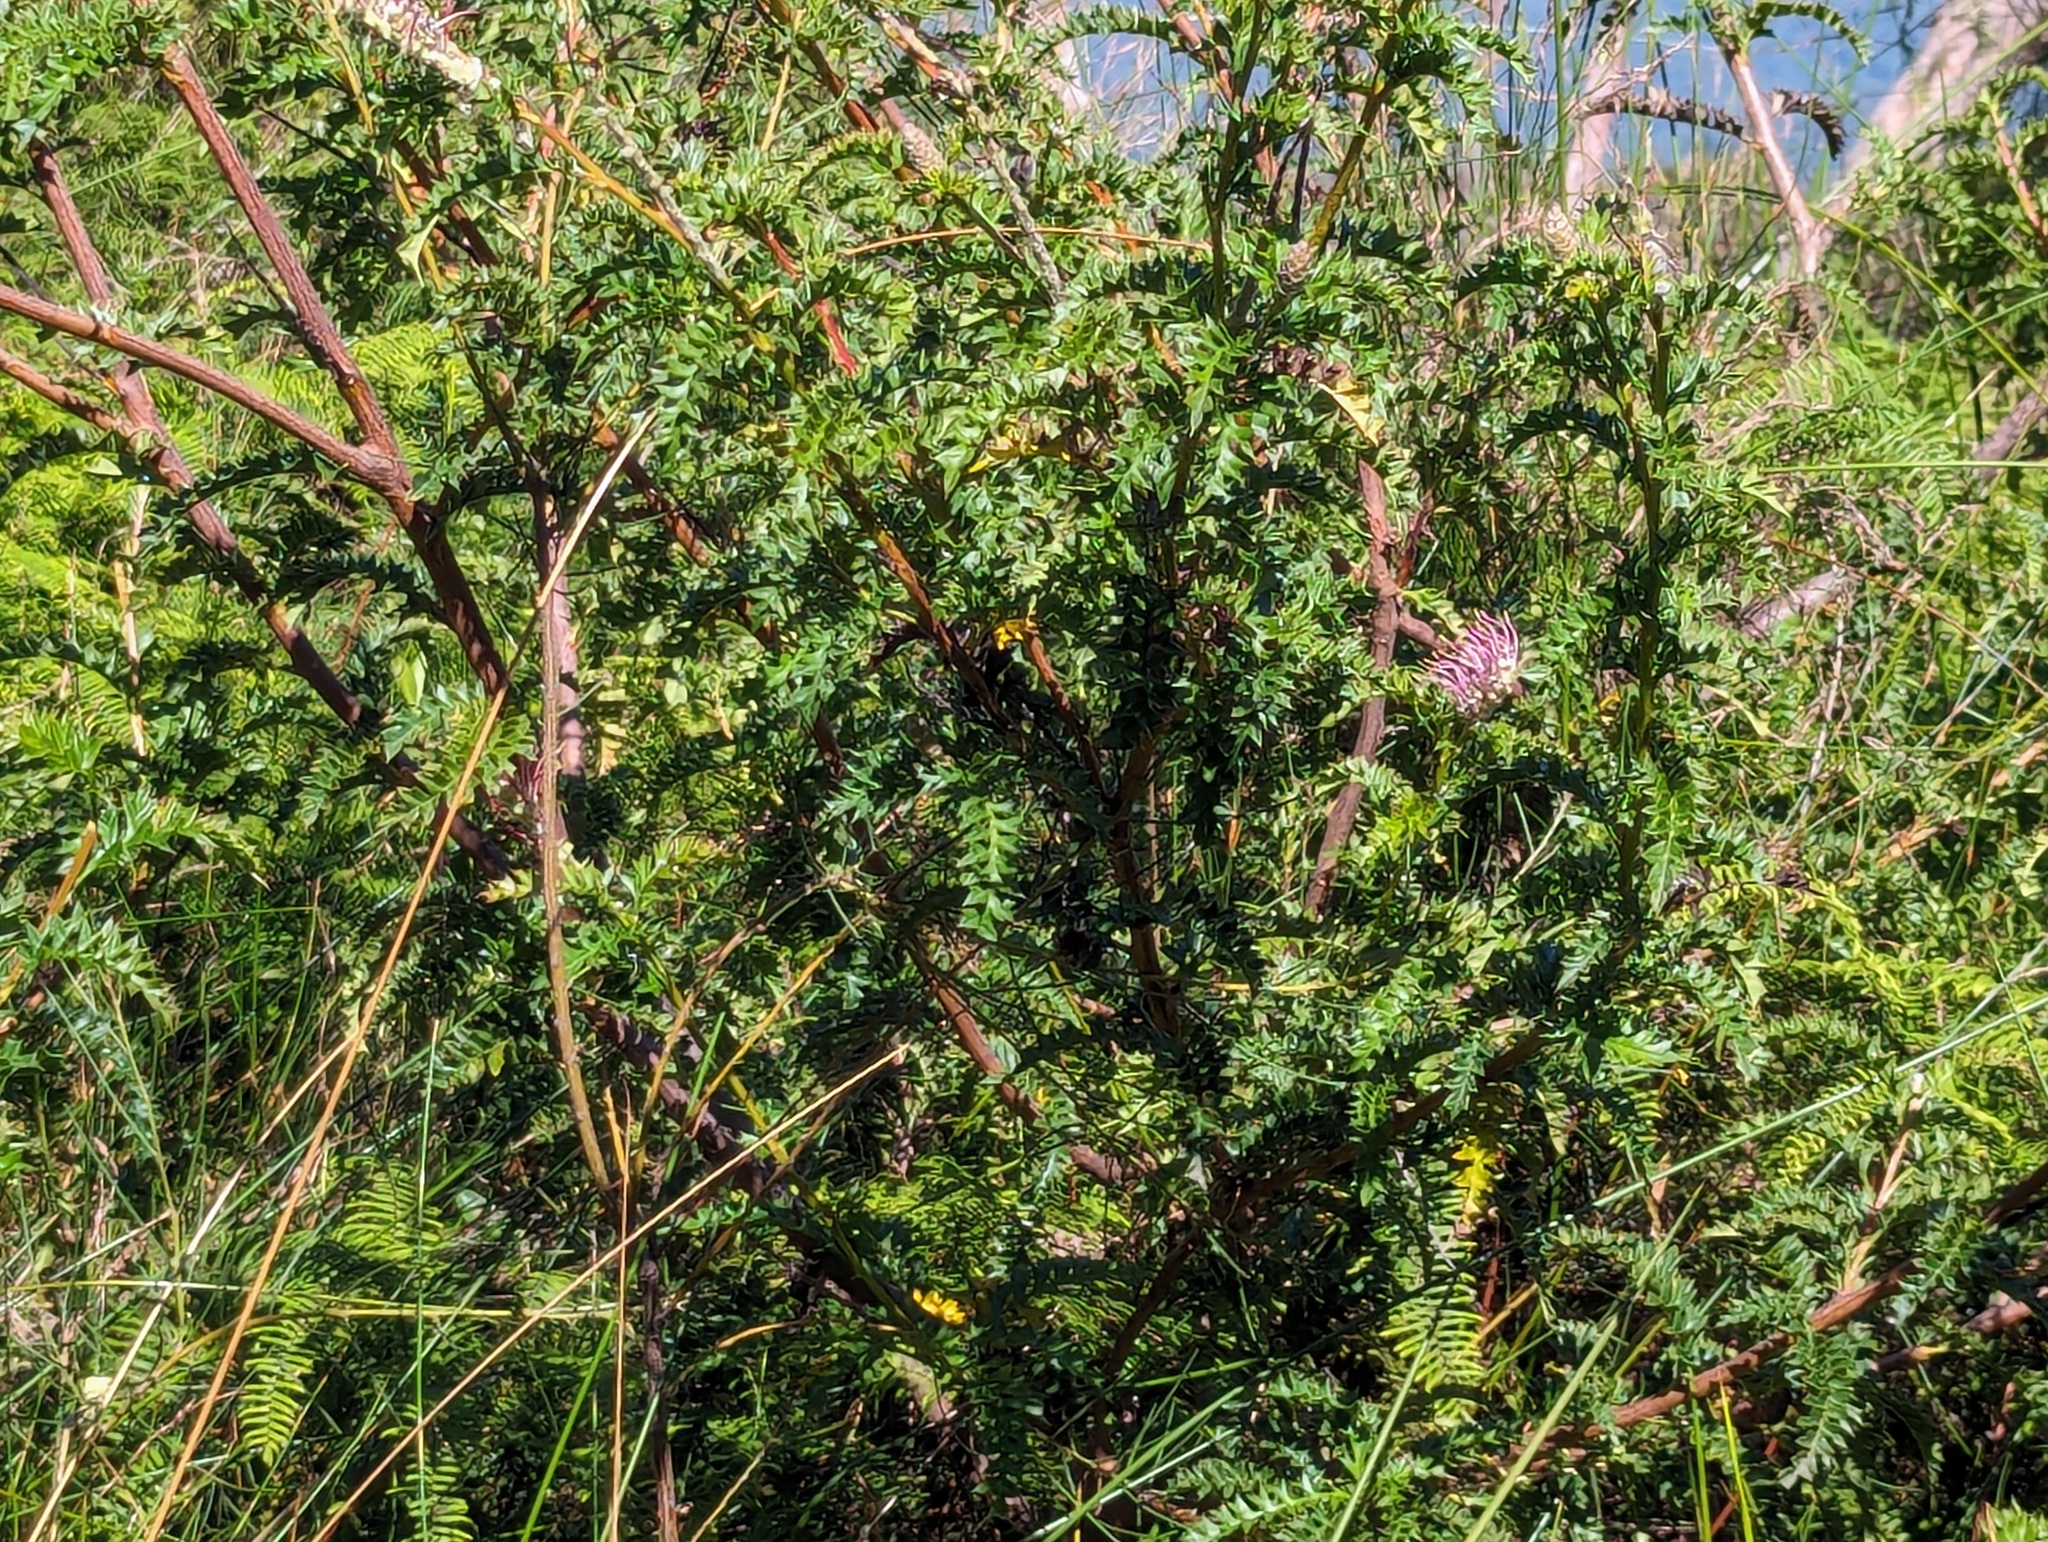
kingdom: Plantae
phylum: Tracheophyta
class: Magnoliopsida
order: Proteales
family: Proteaceae
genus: Grevillea
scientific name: Grevillea acanthifolia
